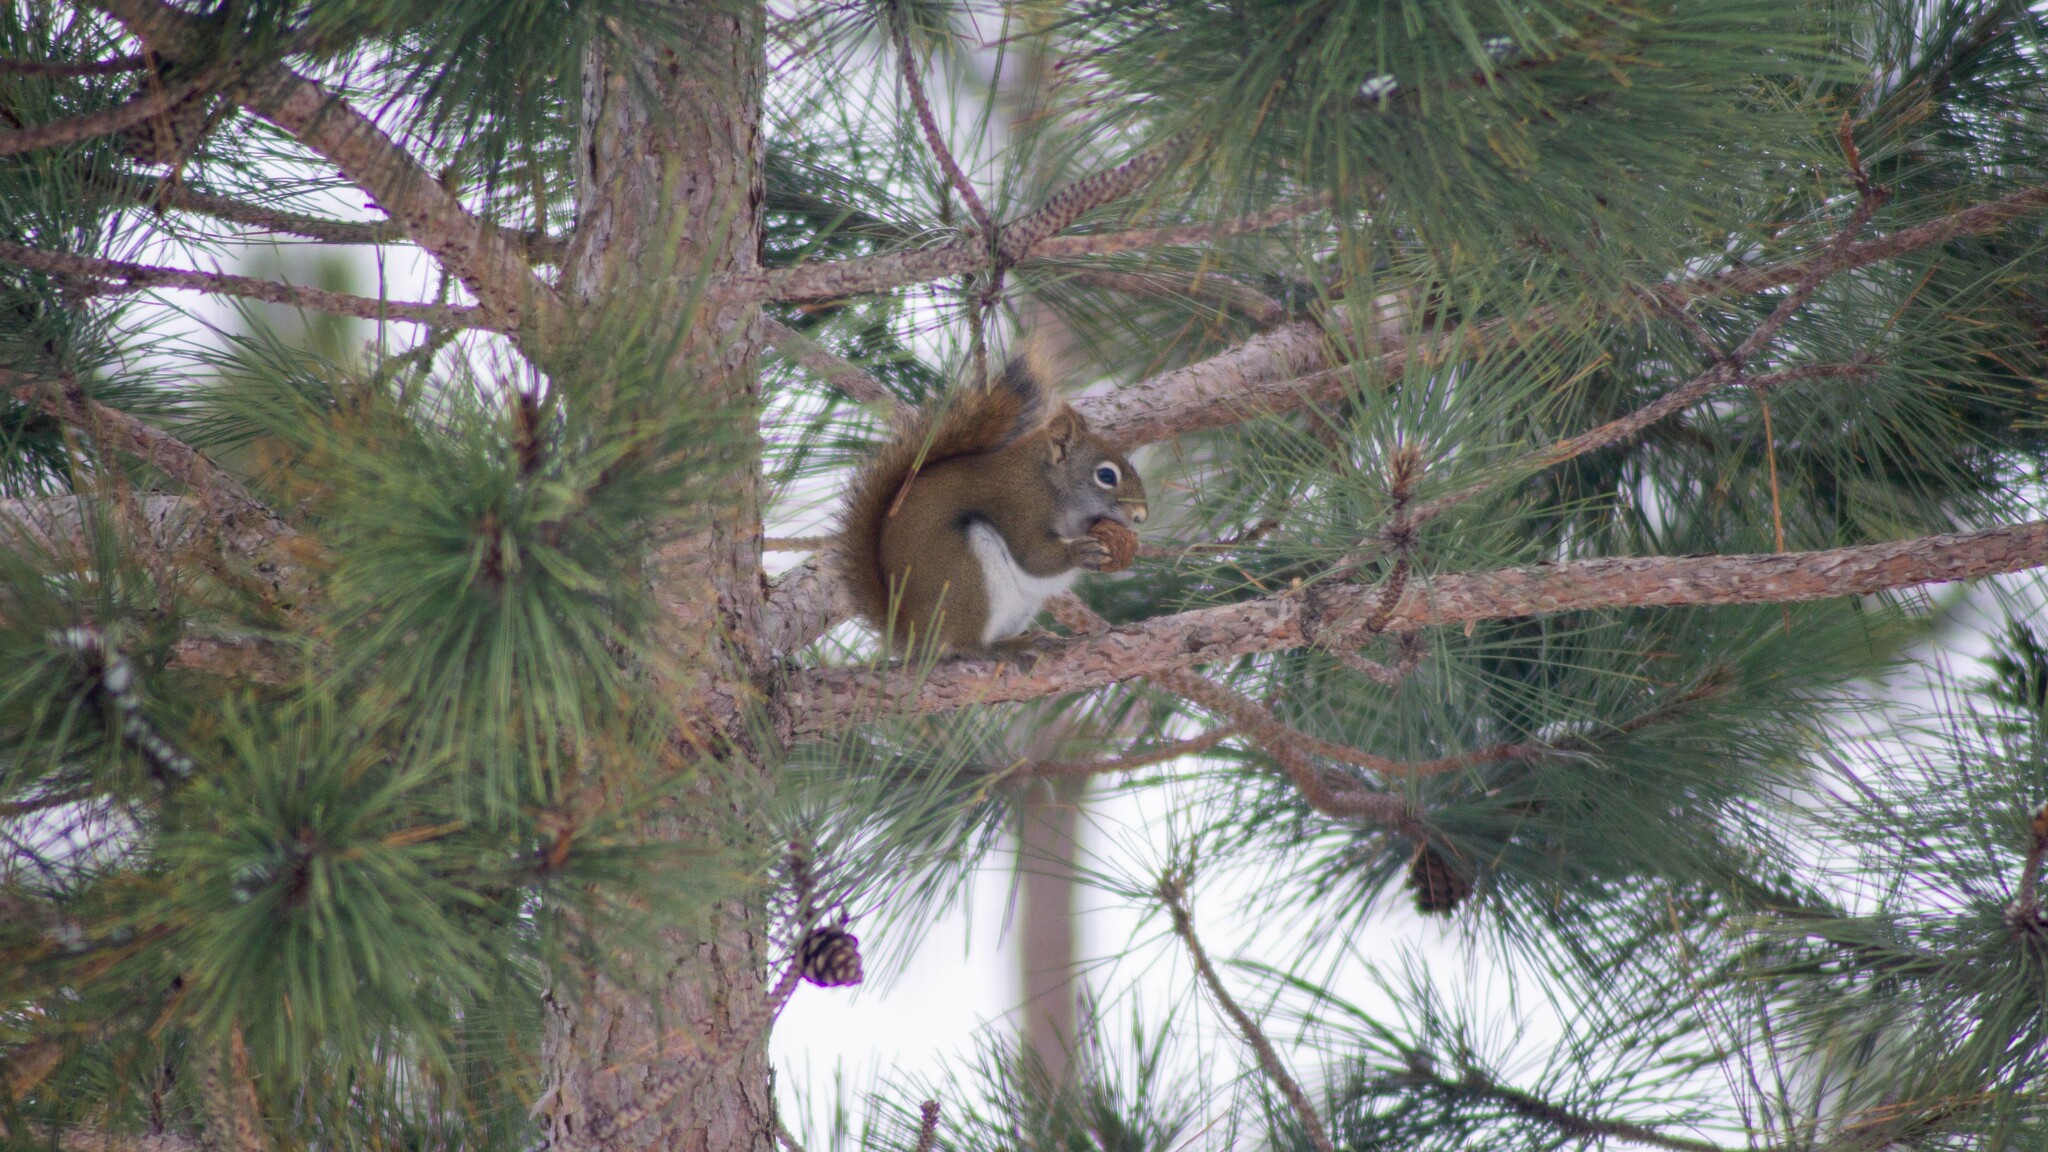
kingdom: Animalia
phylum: Chordata
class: Mammalia
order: Rodentia
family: Sciuridae
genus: Tamiasciurus
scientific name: Tamiasciurus hudsonicus
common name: Red squirrel
